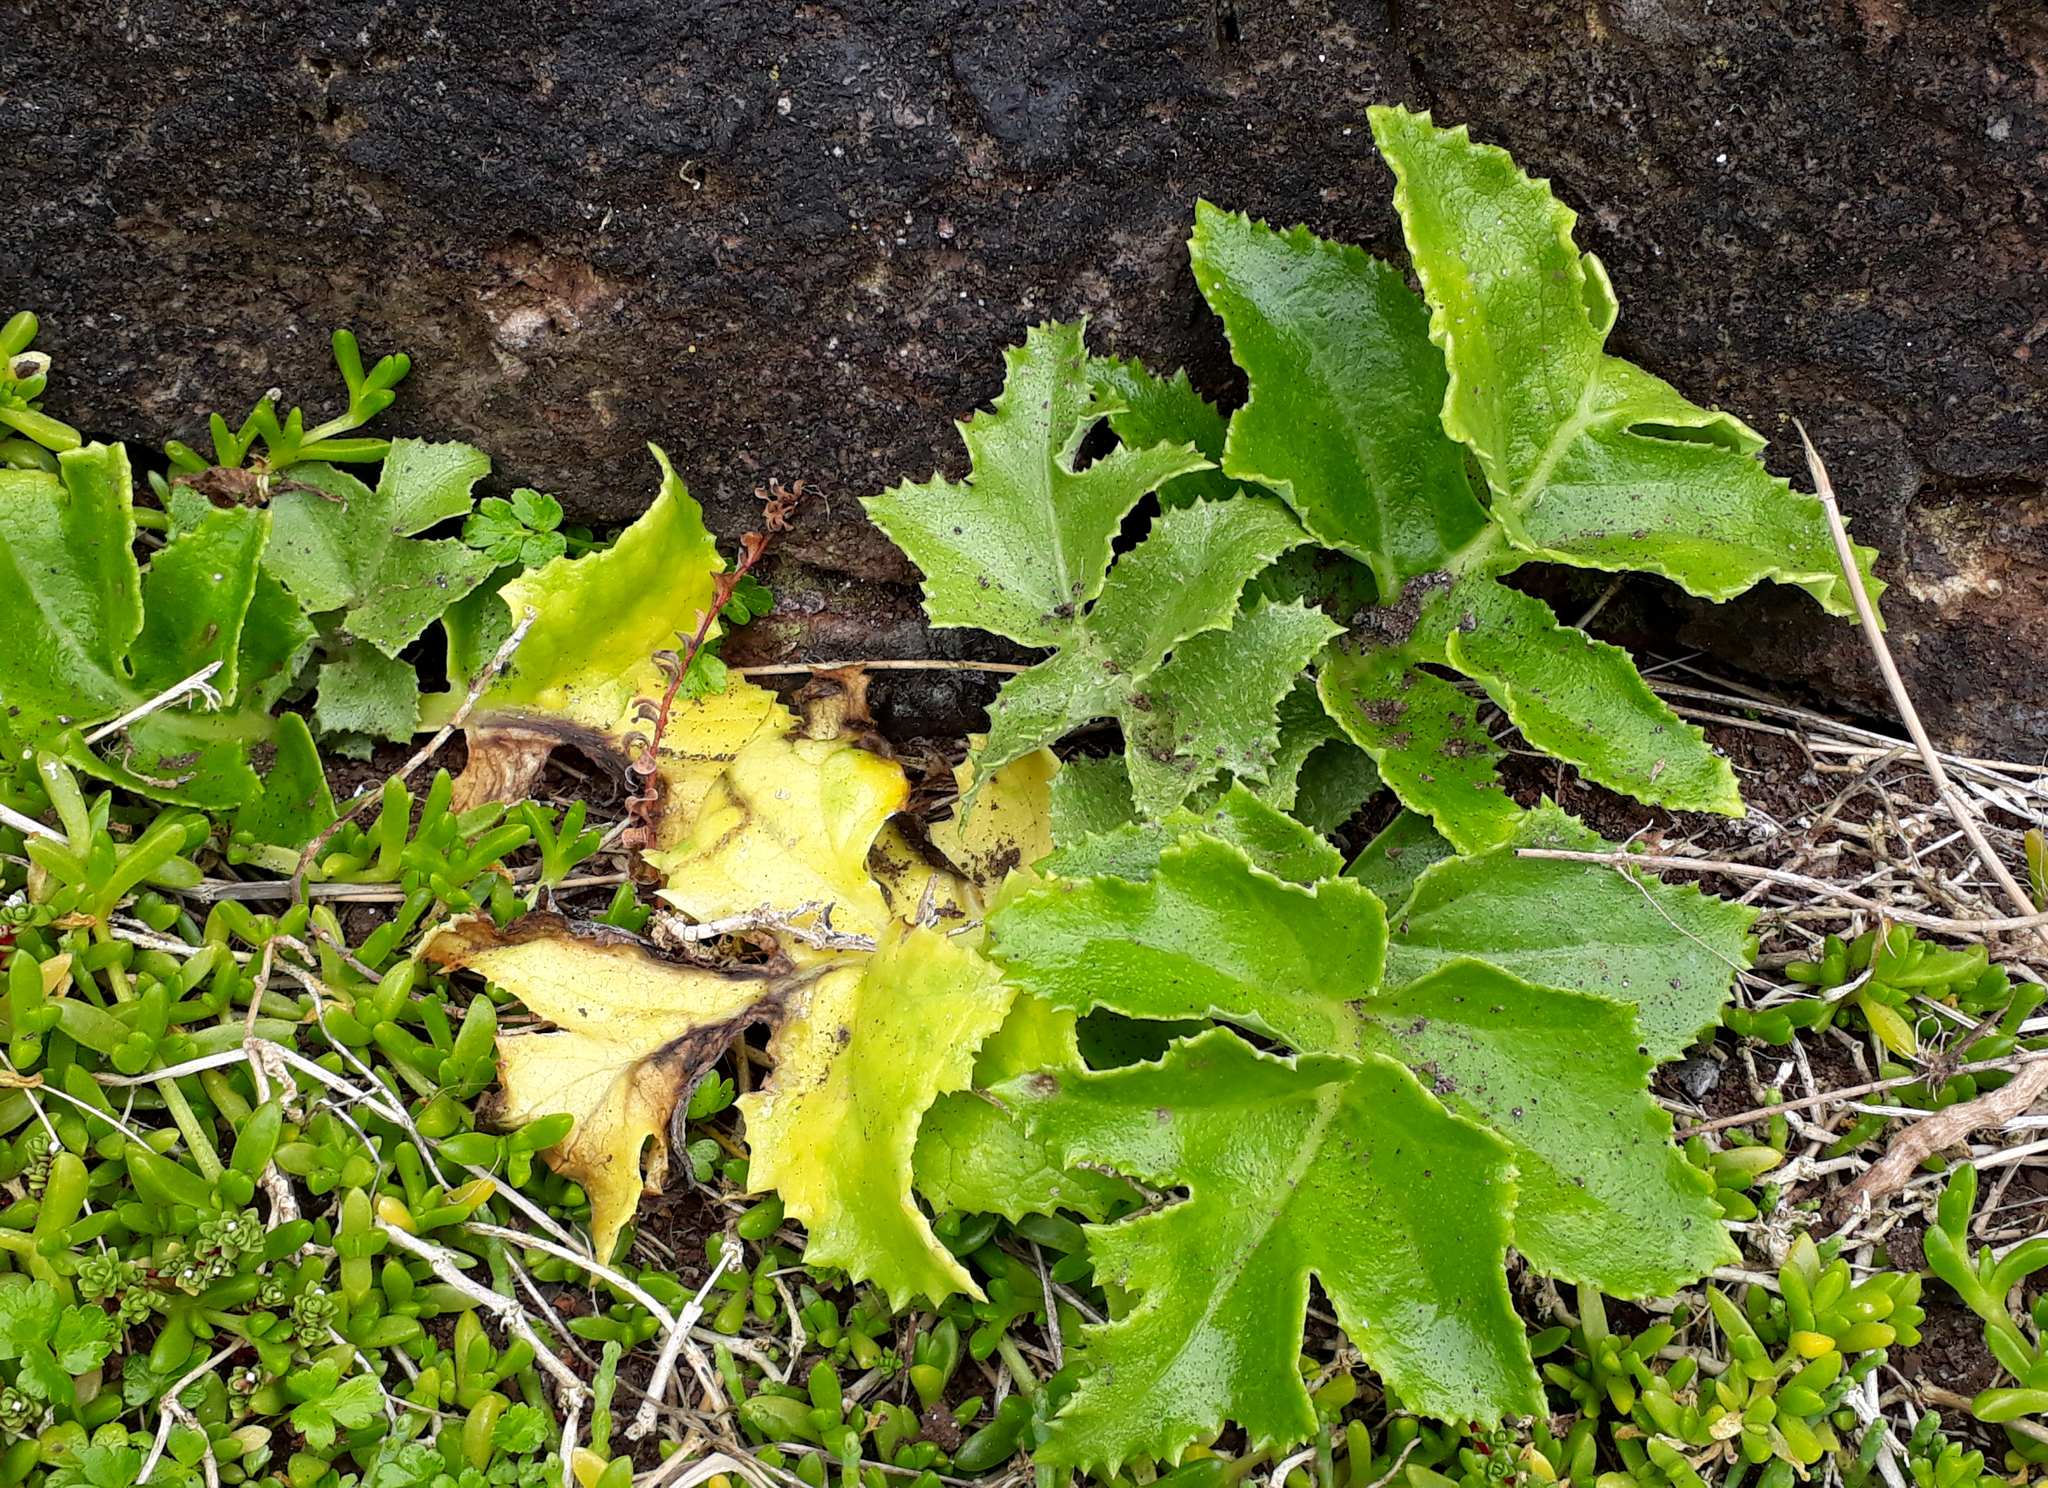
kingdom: Plantae
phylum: Tracheophyta
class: Magnoliopsida
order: Asterales
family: Asteraceae
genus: Sonchus
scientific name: Sonchus grandifolius
